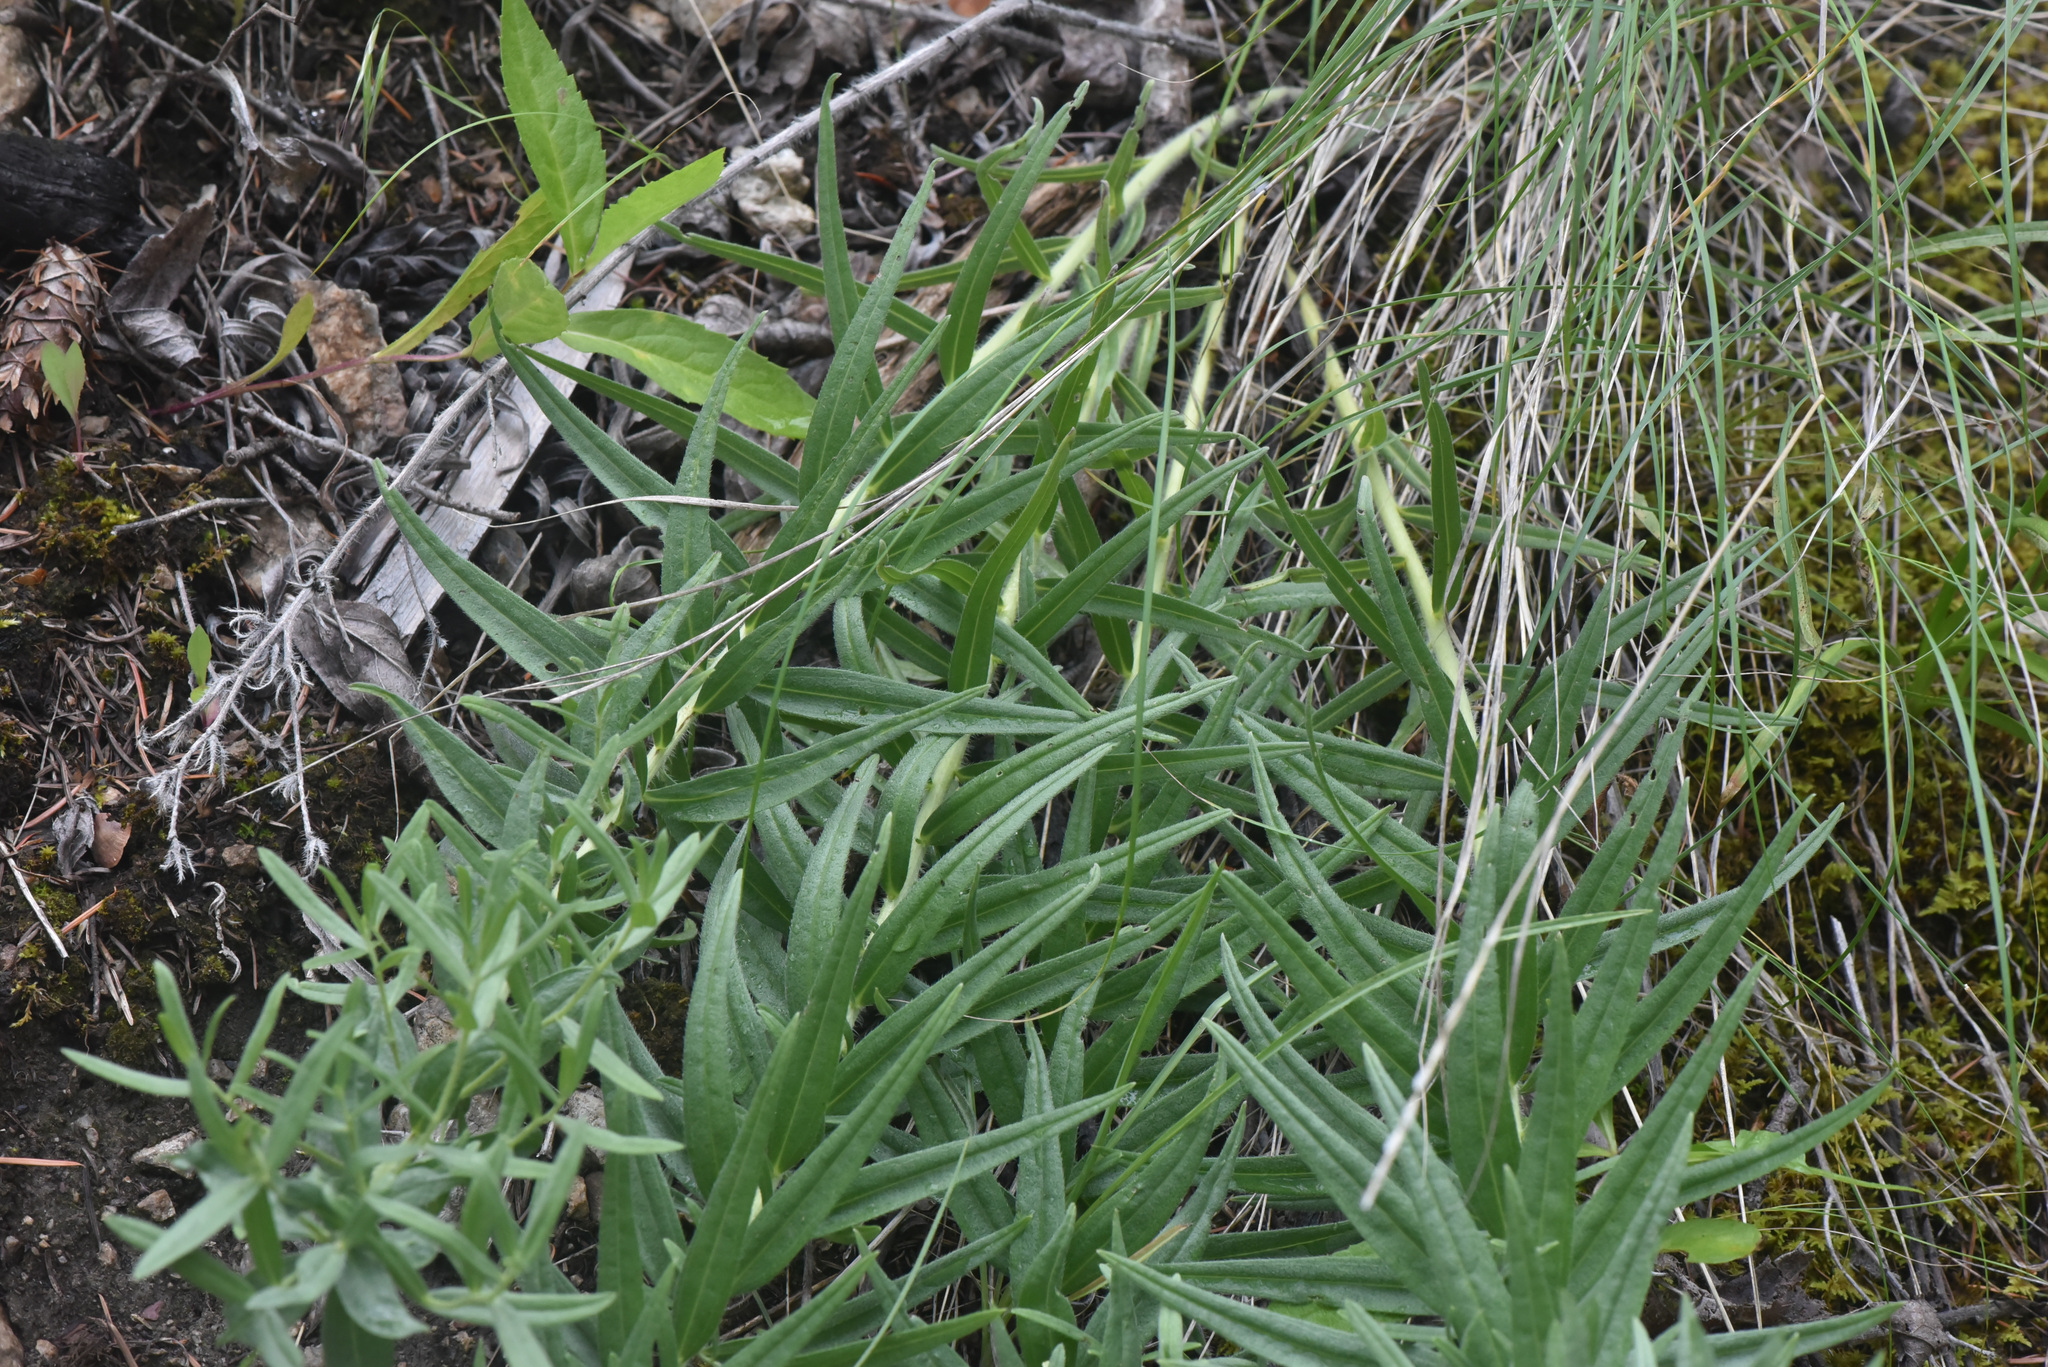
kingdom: Plantae
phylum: Tracheophyta
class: Magnoliopsida
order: Boraginales
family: Boraginaceae
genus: Lithospermum
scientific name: Lithospermum ruderale
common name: Western gromwell
